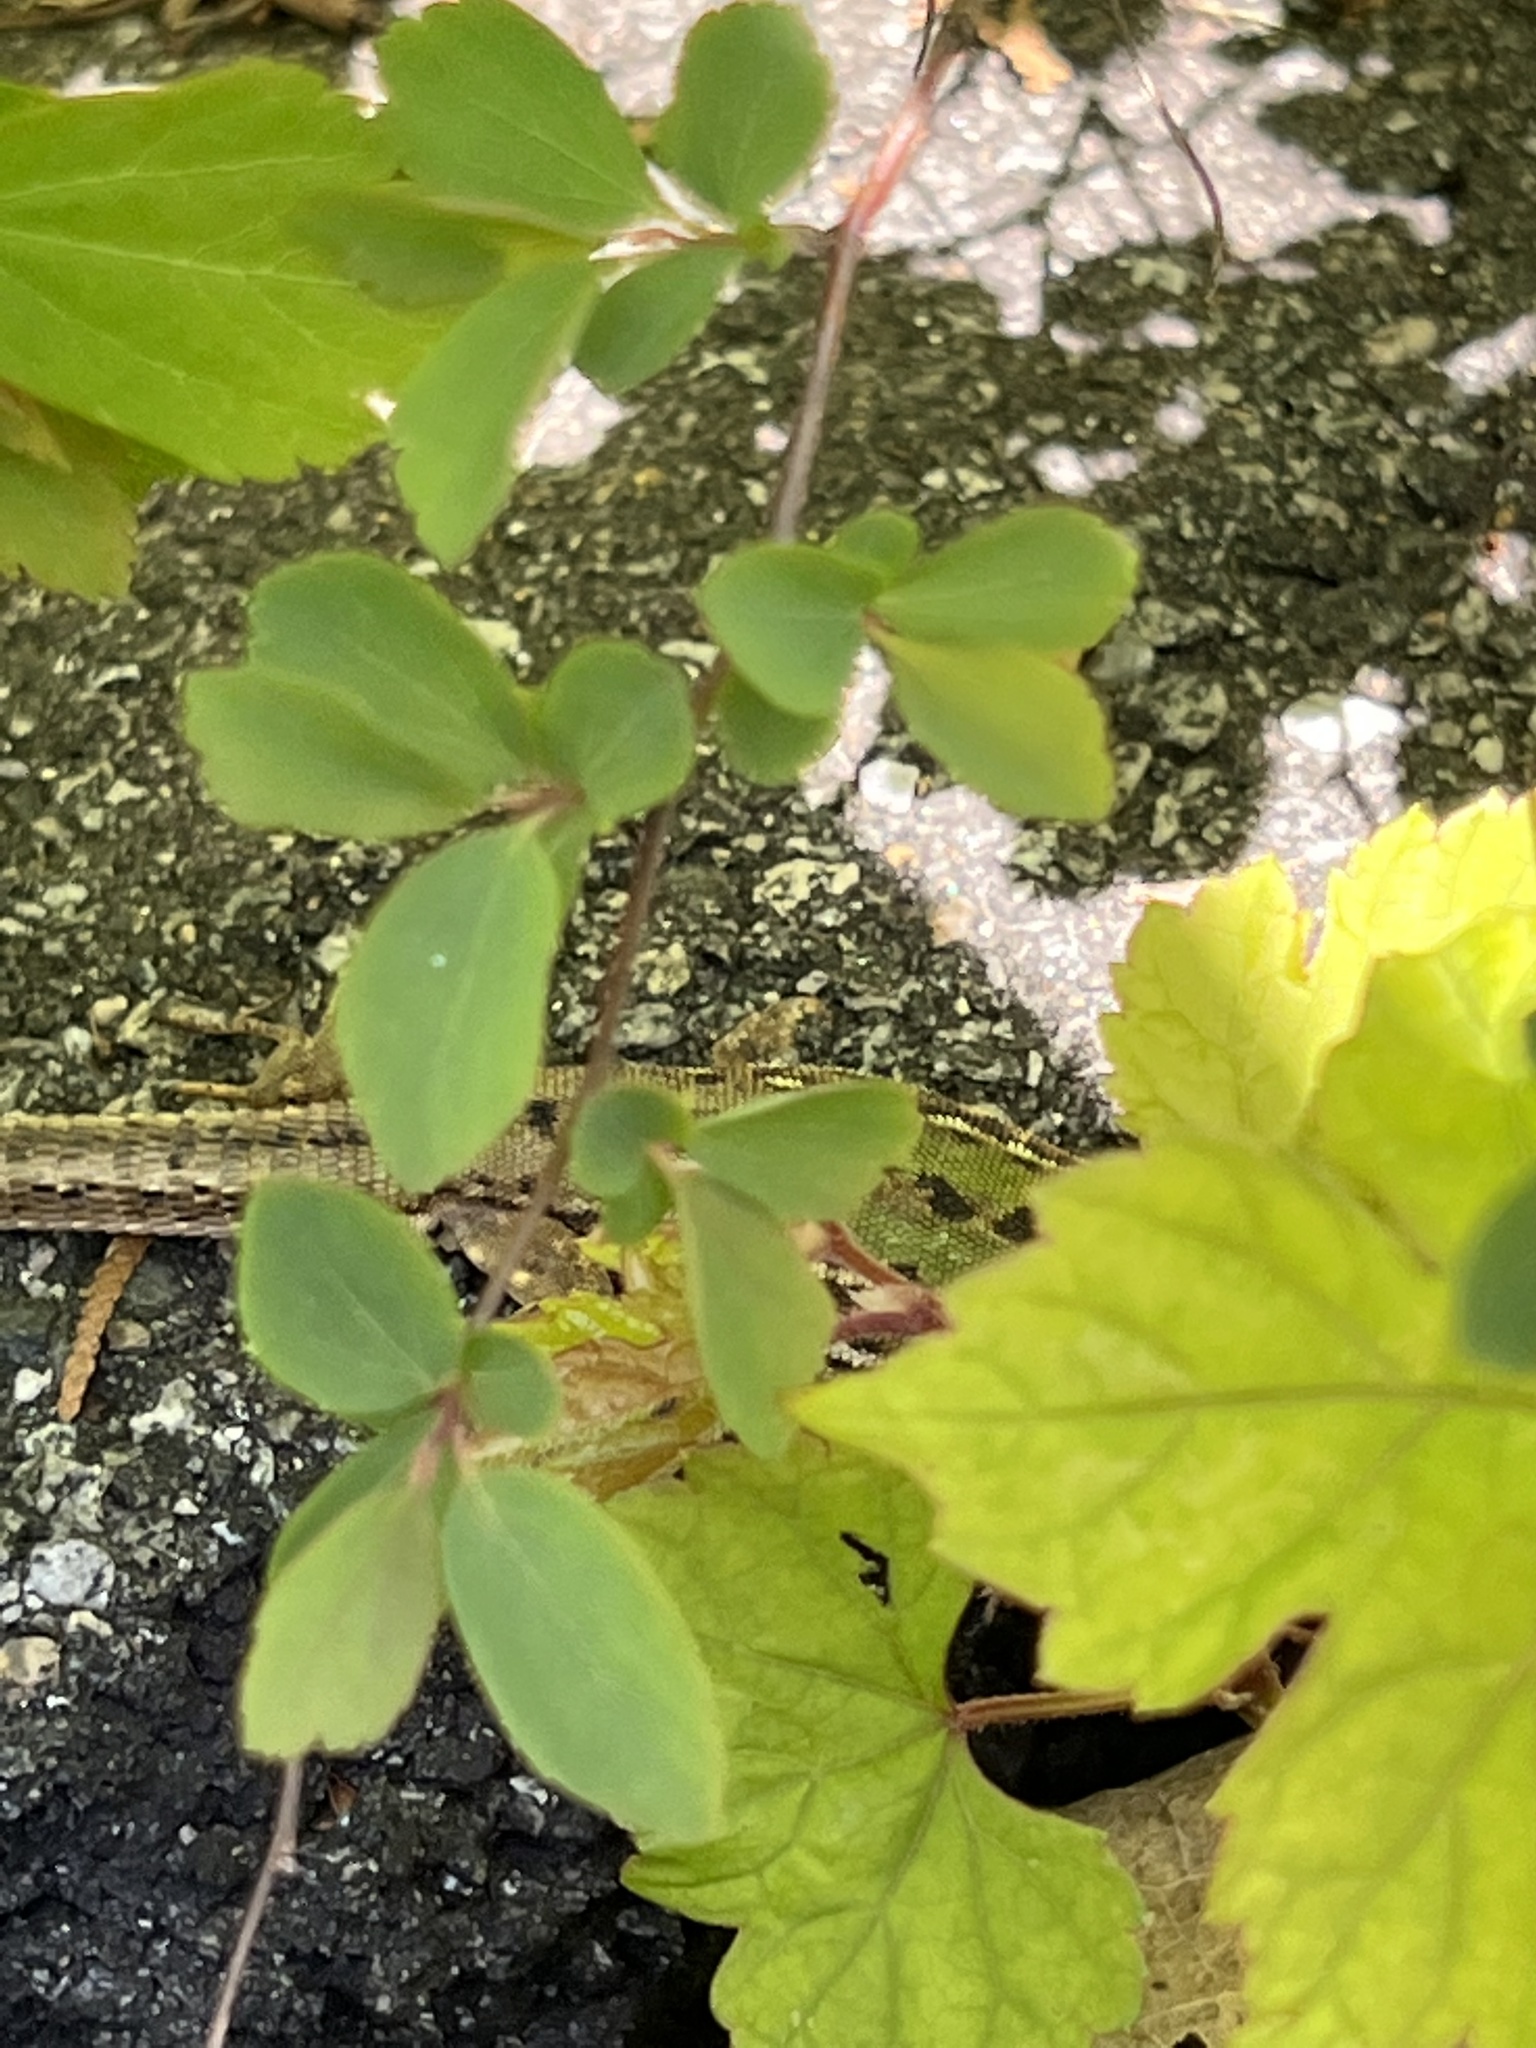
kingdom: Animalia
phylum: Chordata
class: Squamata
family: Lacertidae
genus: Podarcis
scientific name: Podarcis siculus
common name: Italian wall lizard
